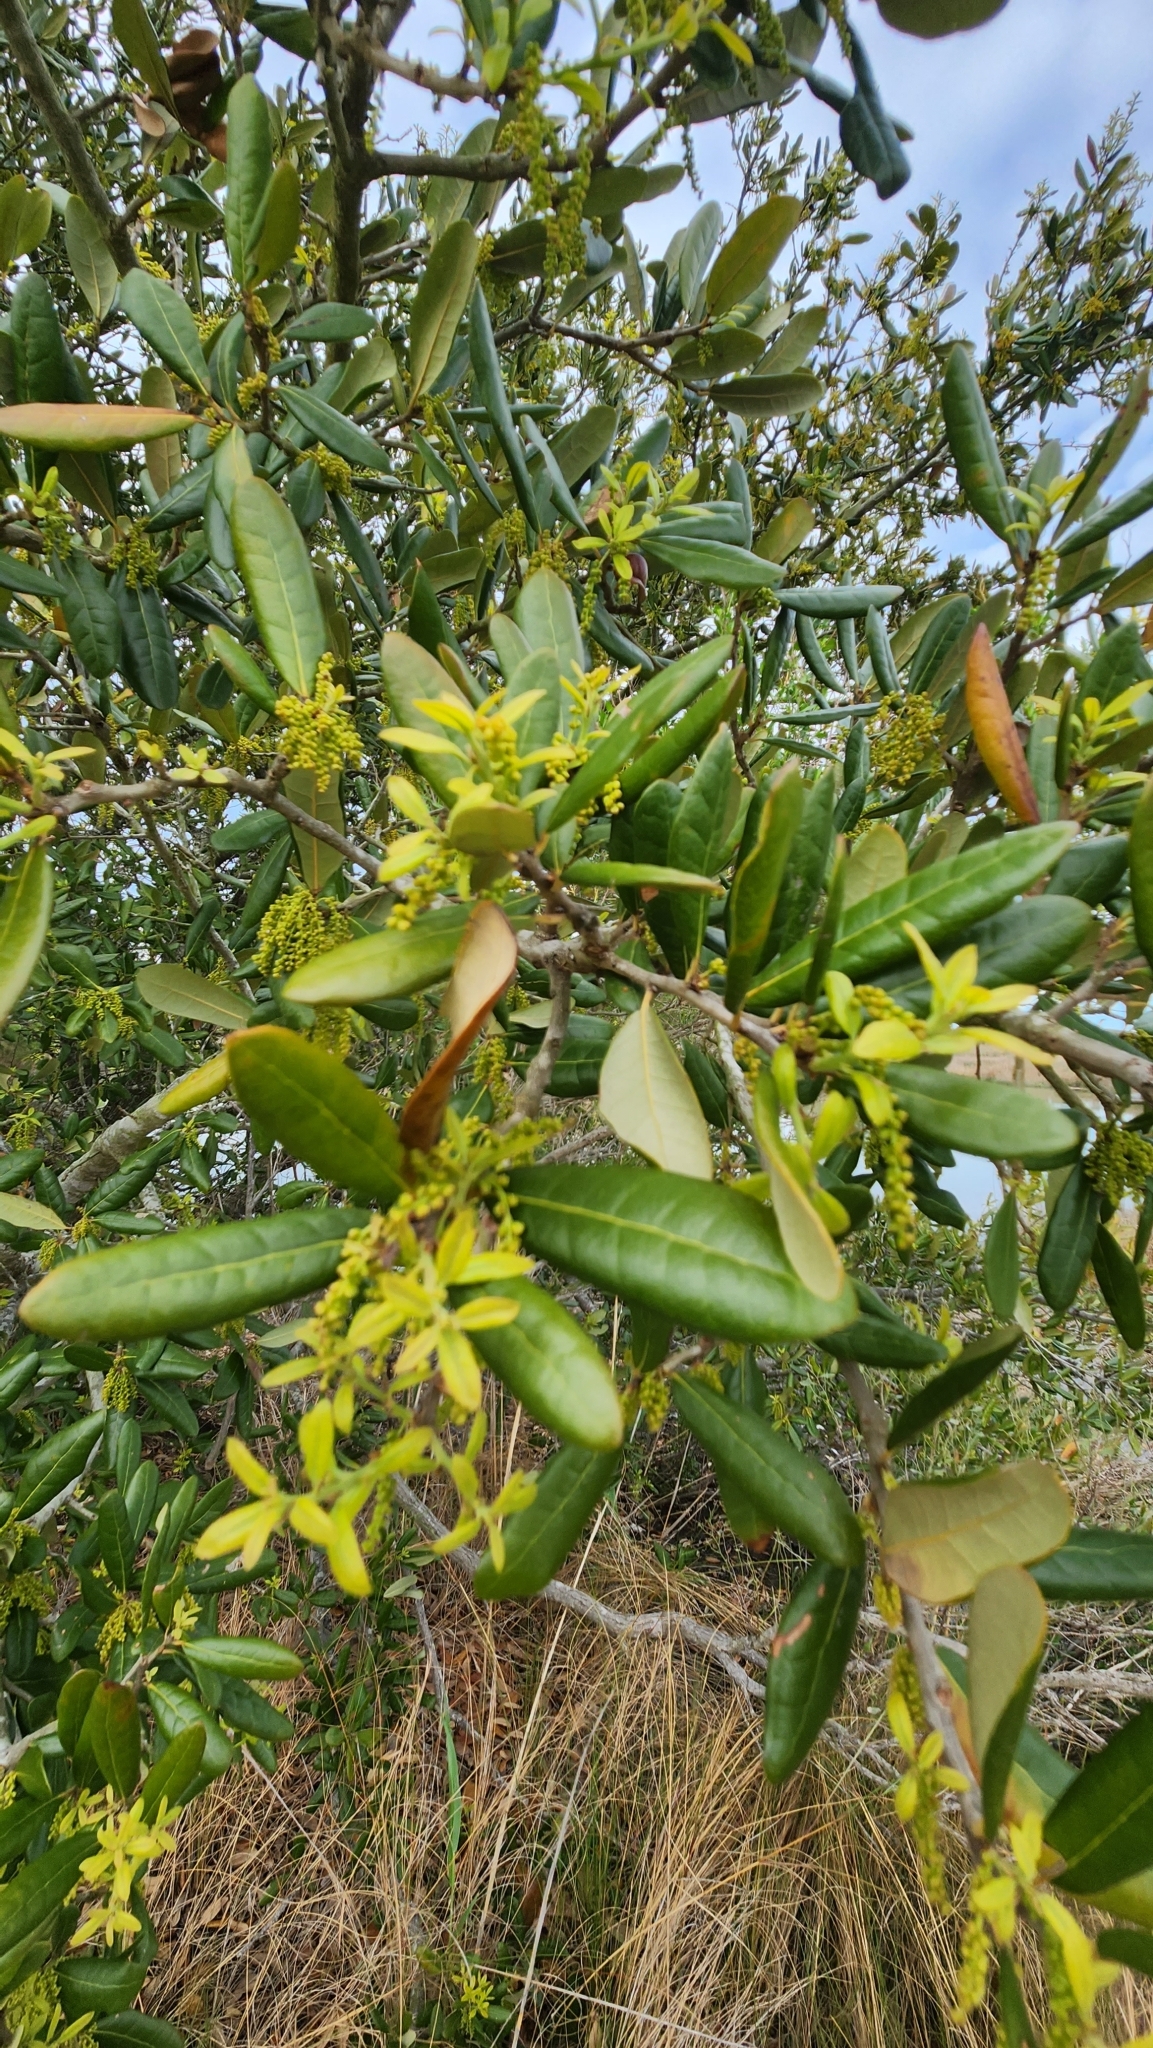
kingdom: Plantae
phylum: Tracheophyta
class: Magnoliopsida
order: Fagales
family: Fagaceae
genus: Quercus
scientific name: Quercus virginiana
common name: Southern live oak
